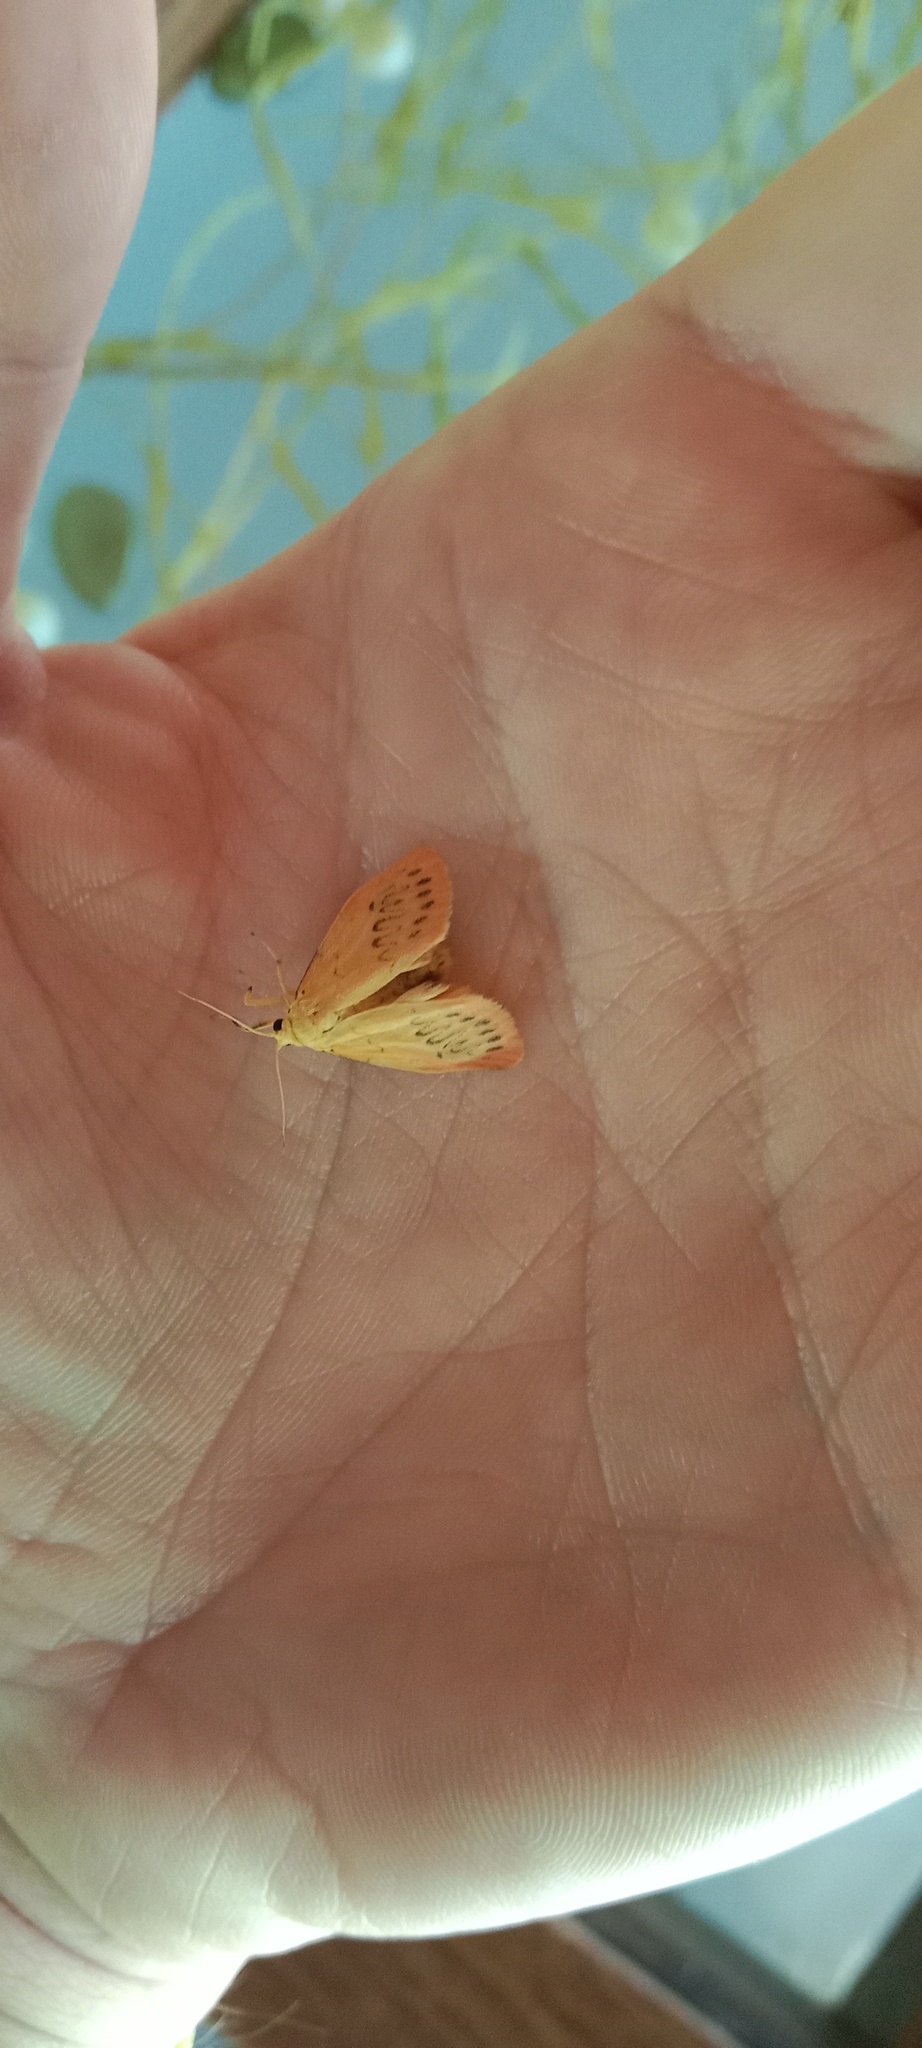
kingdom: Animalia
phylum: Arthropoda
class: Insecta
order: Lepidoptera
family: Erebidae
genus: Miltochrista
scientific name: Miltochrista miniata
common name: Rosy footman
